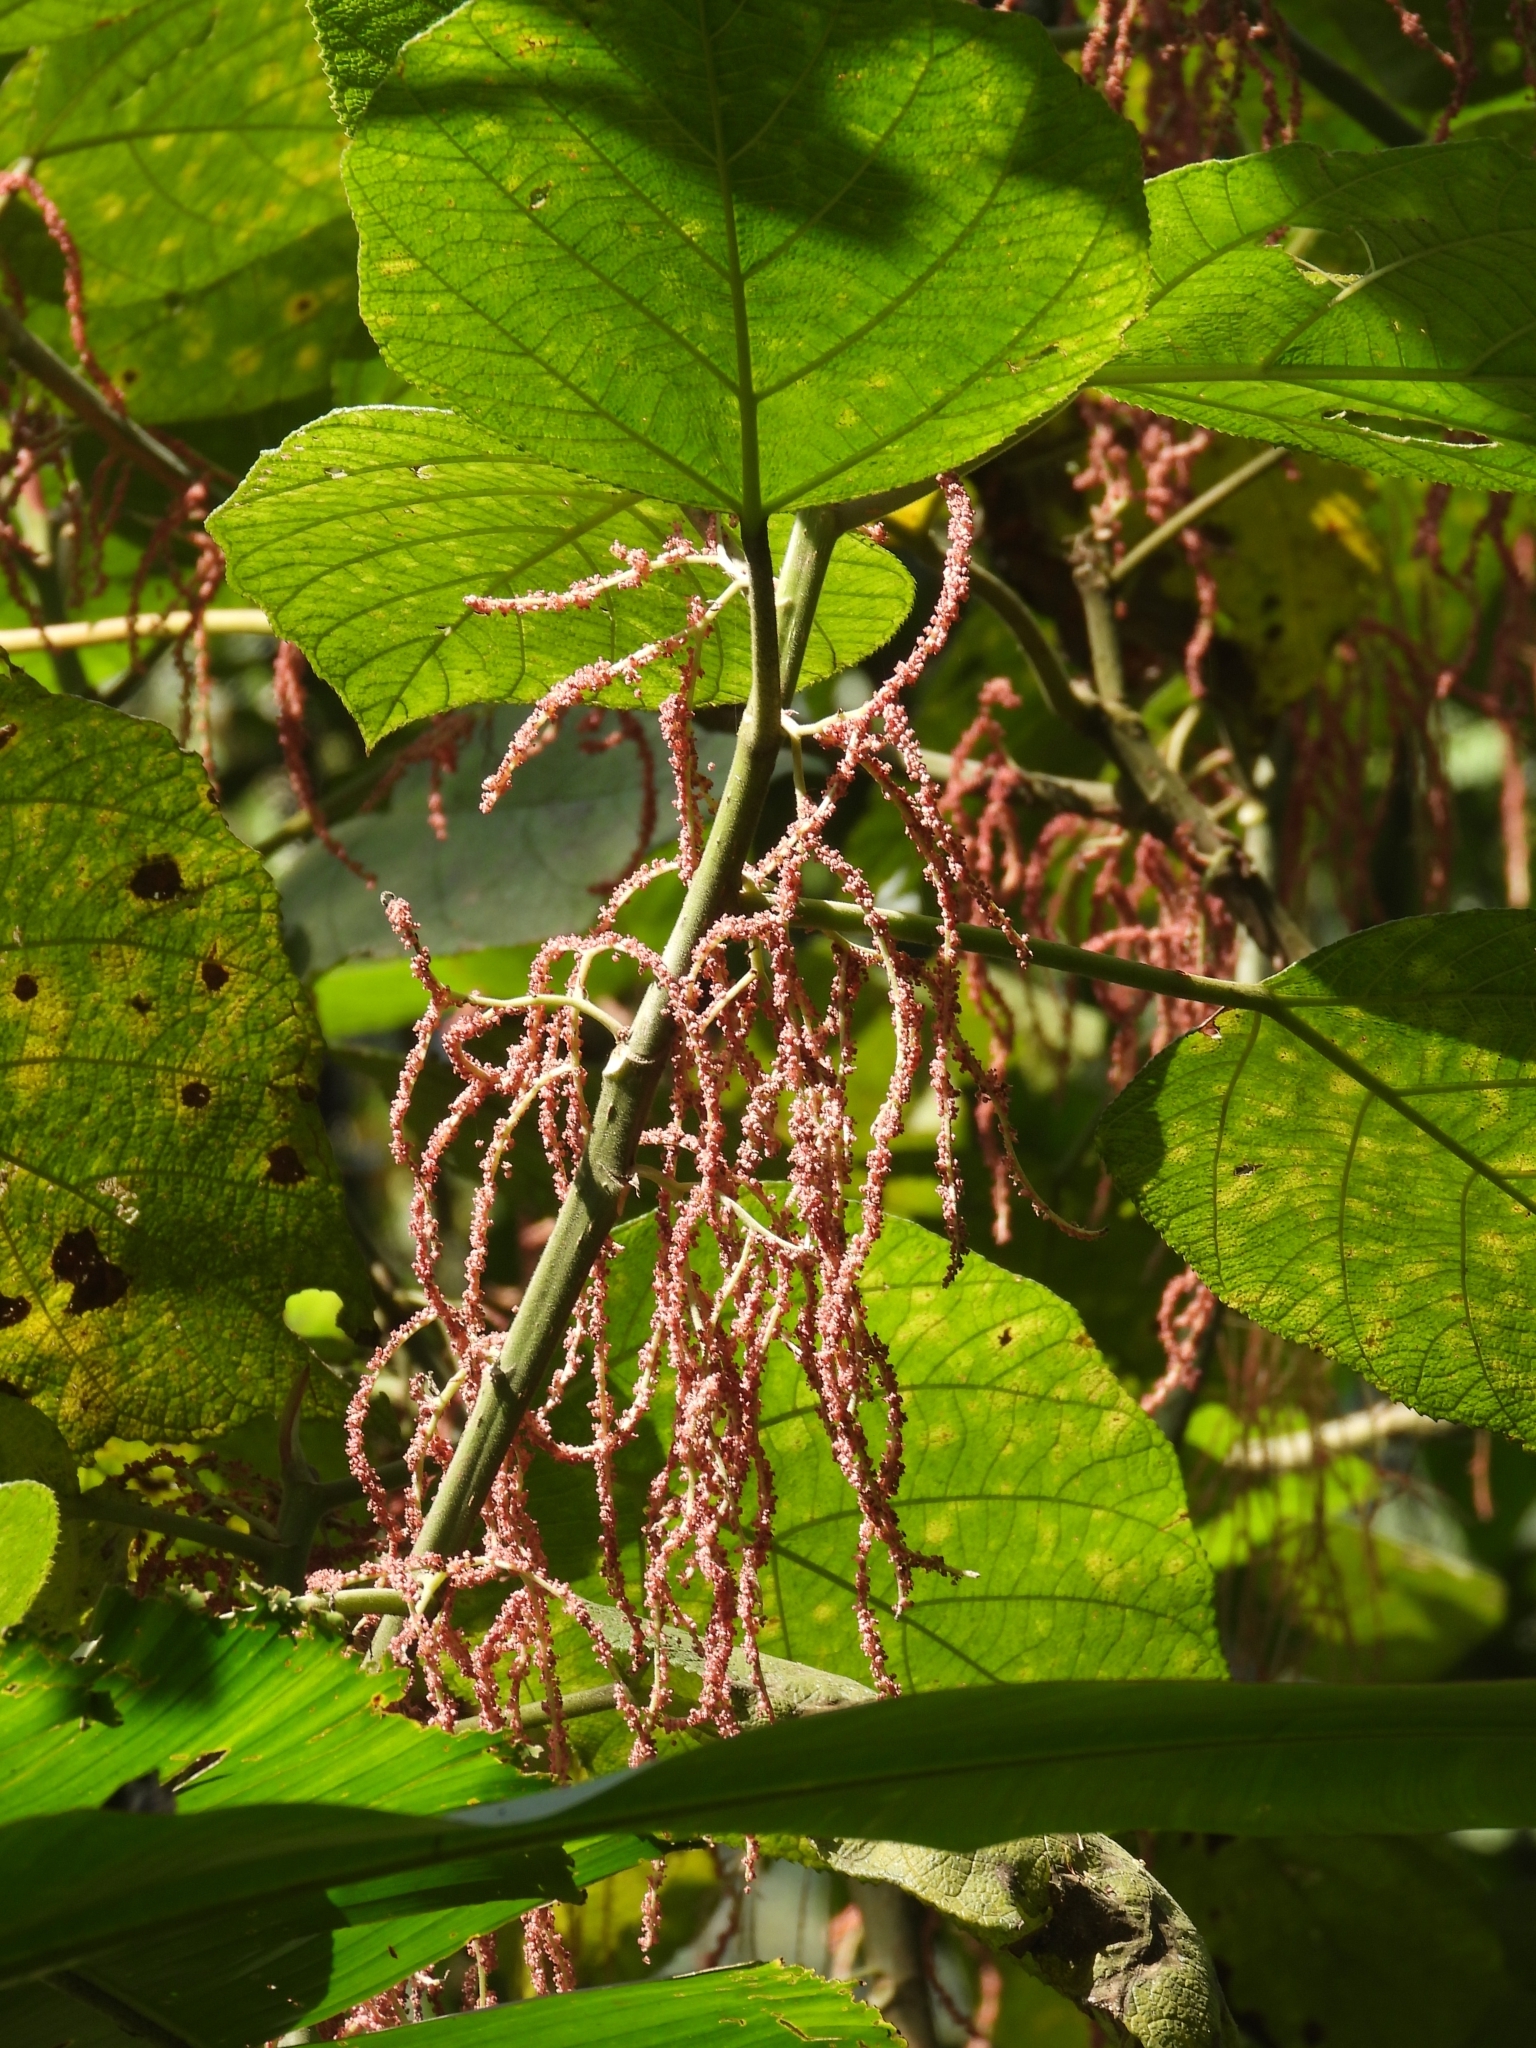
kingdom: Plantae
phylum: Tracheophyta
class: Magnoliopsida
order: Rosales
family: Urticaceae
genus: Myriocarpa
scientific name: Myriocarpa longipes
